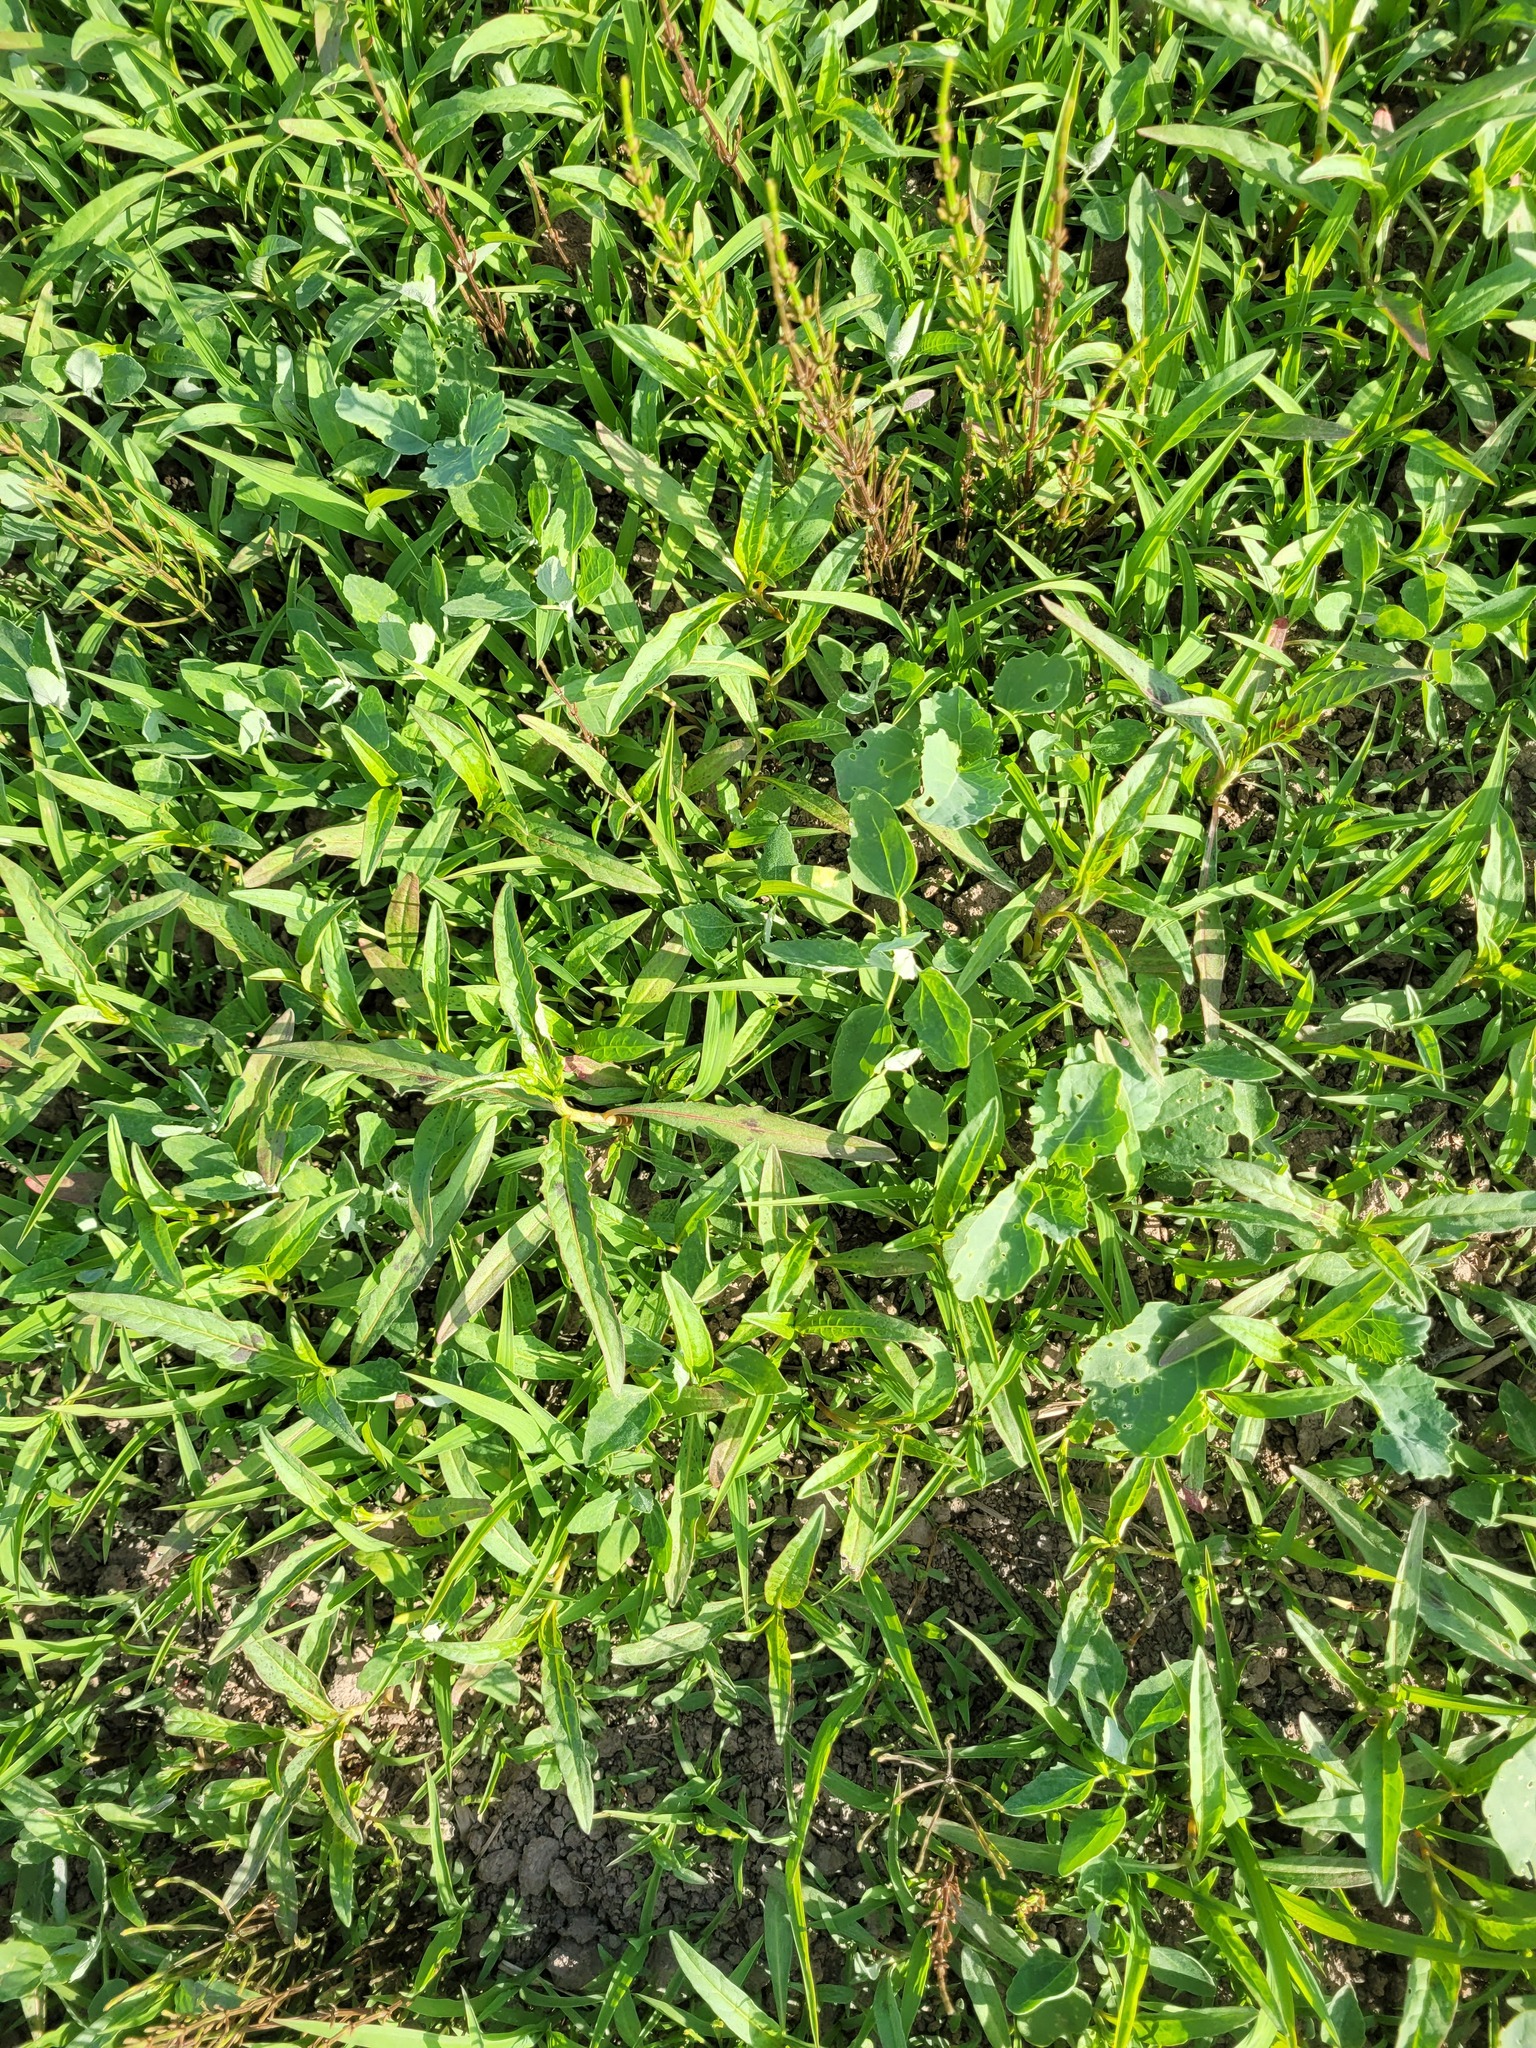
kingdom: Plantae
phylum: Tracheophyta
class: Magnoliopsida
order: Caryophyllales
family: Polygonaceae
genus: Persicaria
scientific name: Persicaria lapathifolia
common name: Curlytop knotweed
